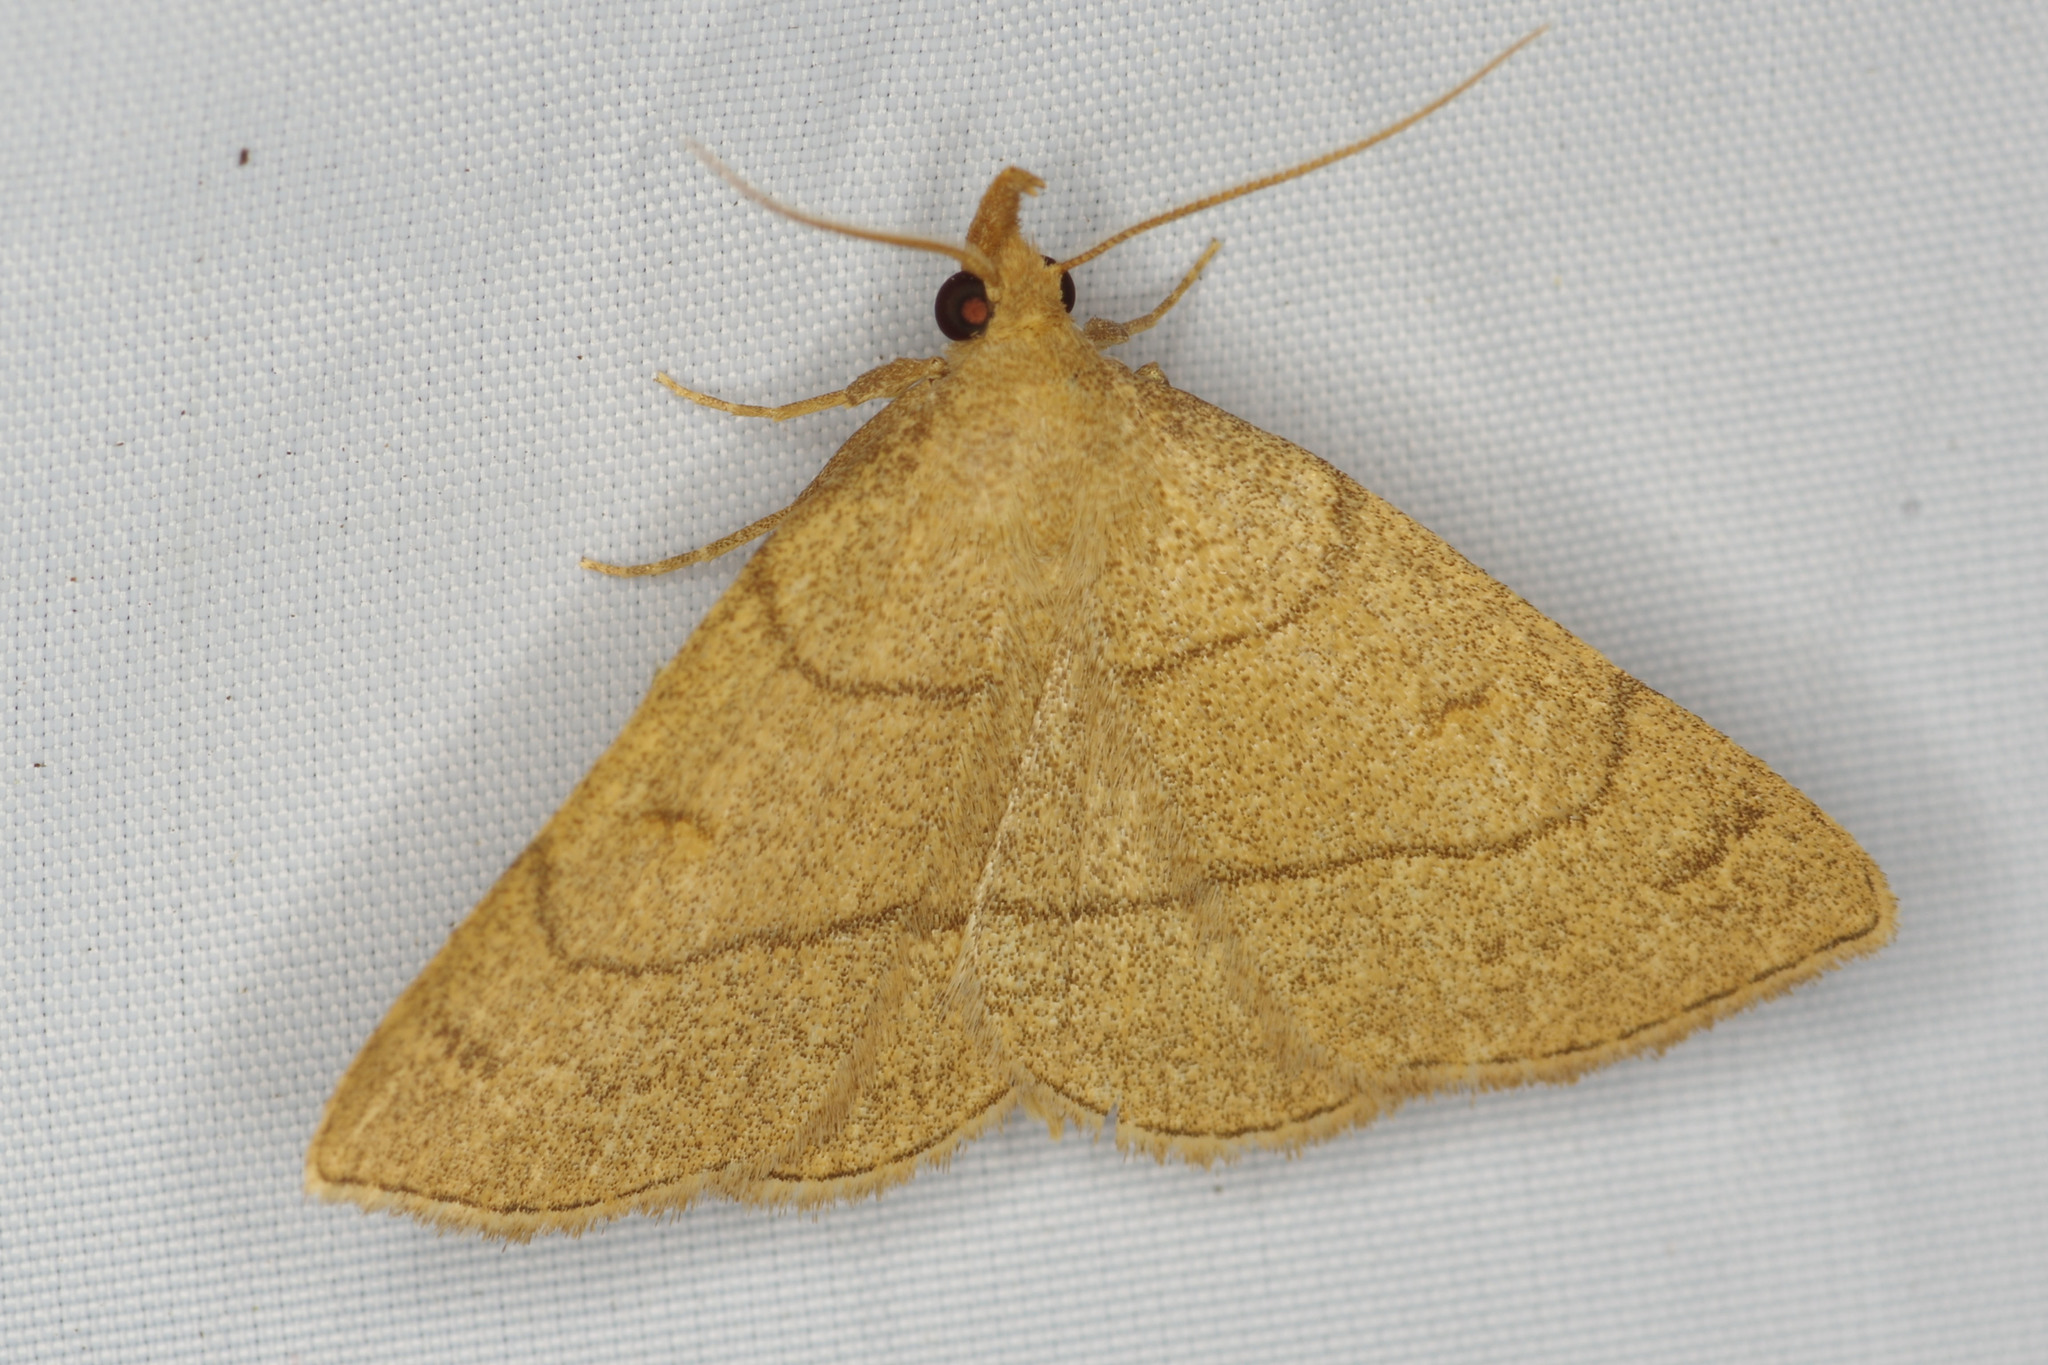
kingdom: Animalia
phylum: Arthropoda
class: Insecta
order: Lepidoptera
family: Erebidae
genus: Paracolax
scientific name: Paracolax tristalis
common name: Clay fan-foot
